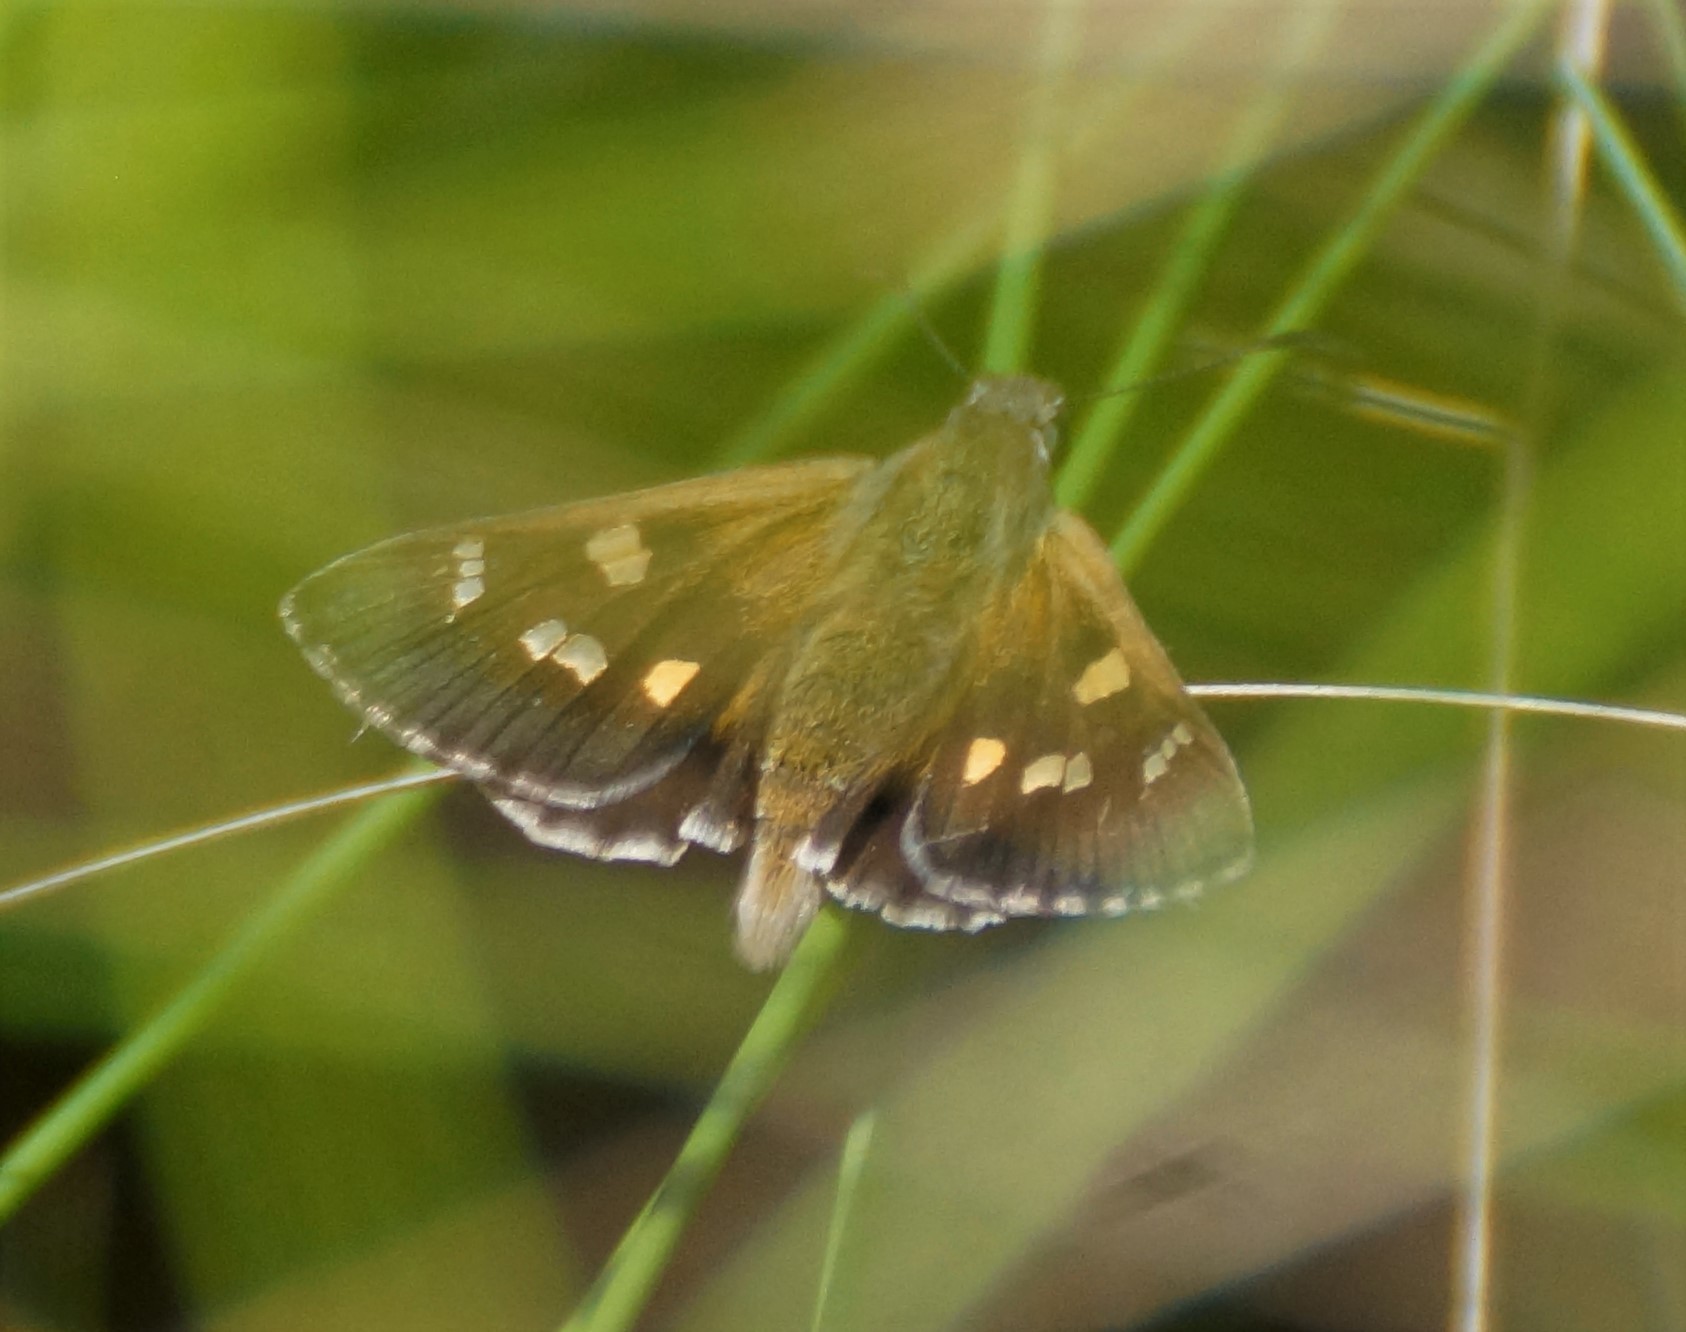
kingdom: Animalia
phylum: Arthropoda
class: Insecta
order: Lepidoptera
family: Hesperiidae
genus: Hesperilla
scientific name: Hesperilla donnysa
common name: Varied sedge-skipper
